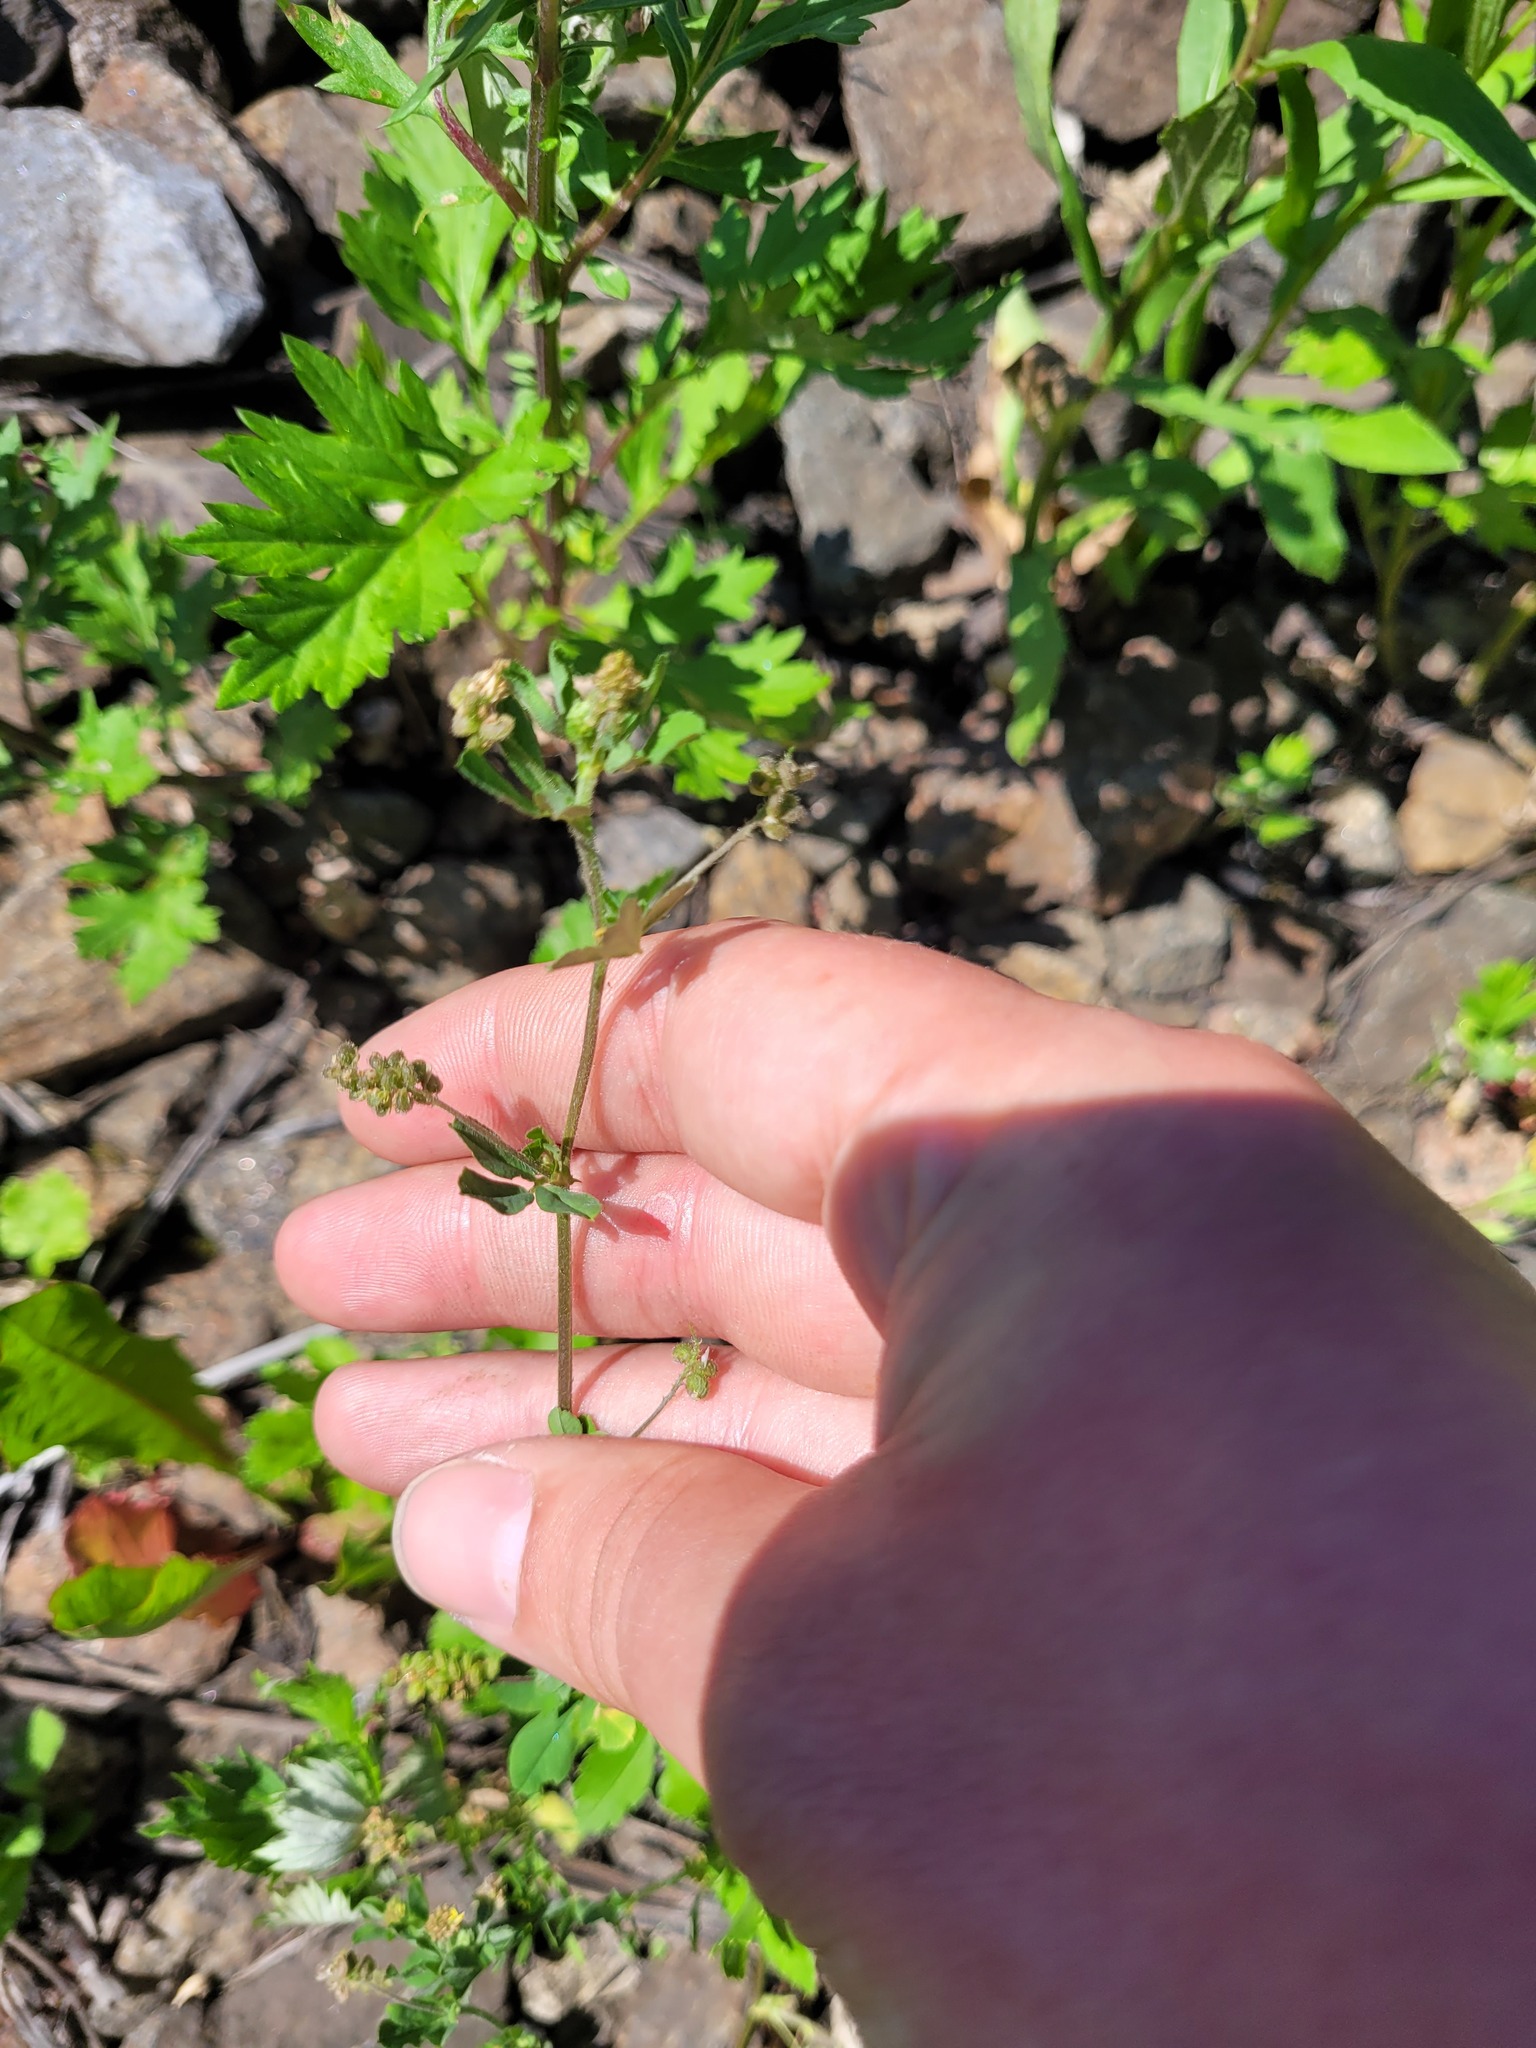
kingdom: Plantae
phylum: Tracheophyta
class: Magnoliopsida
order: Fabales
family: Fabaceae
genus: Medicago
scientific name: Medicago lupulina
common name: Black medick
